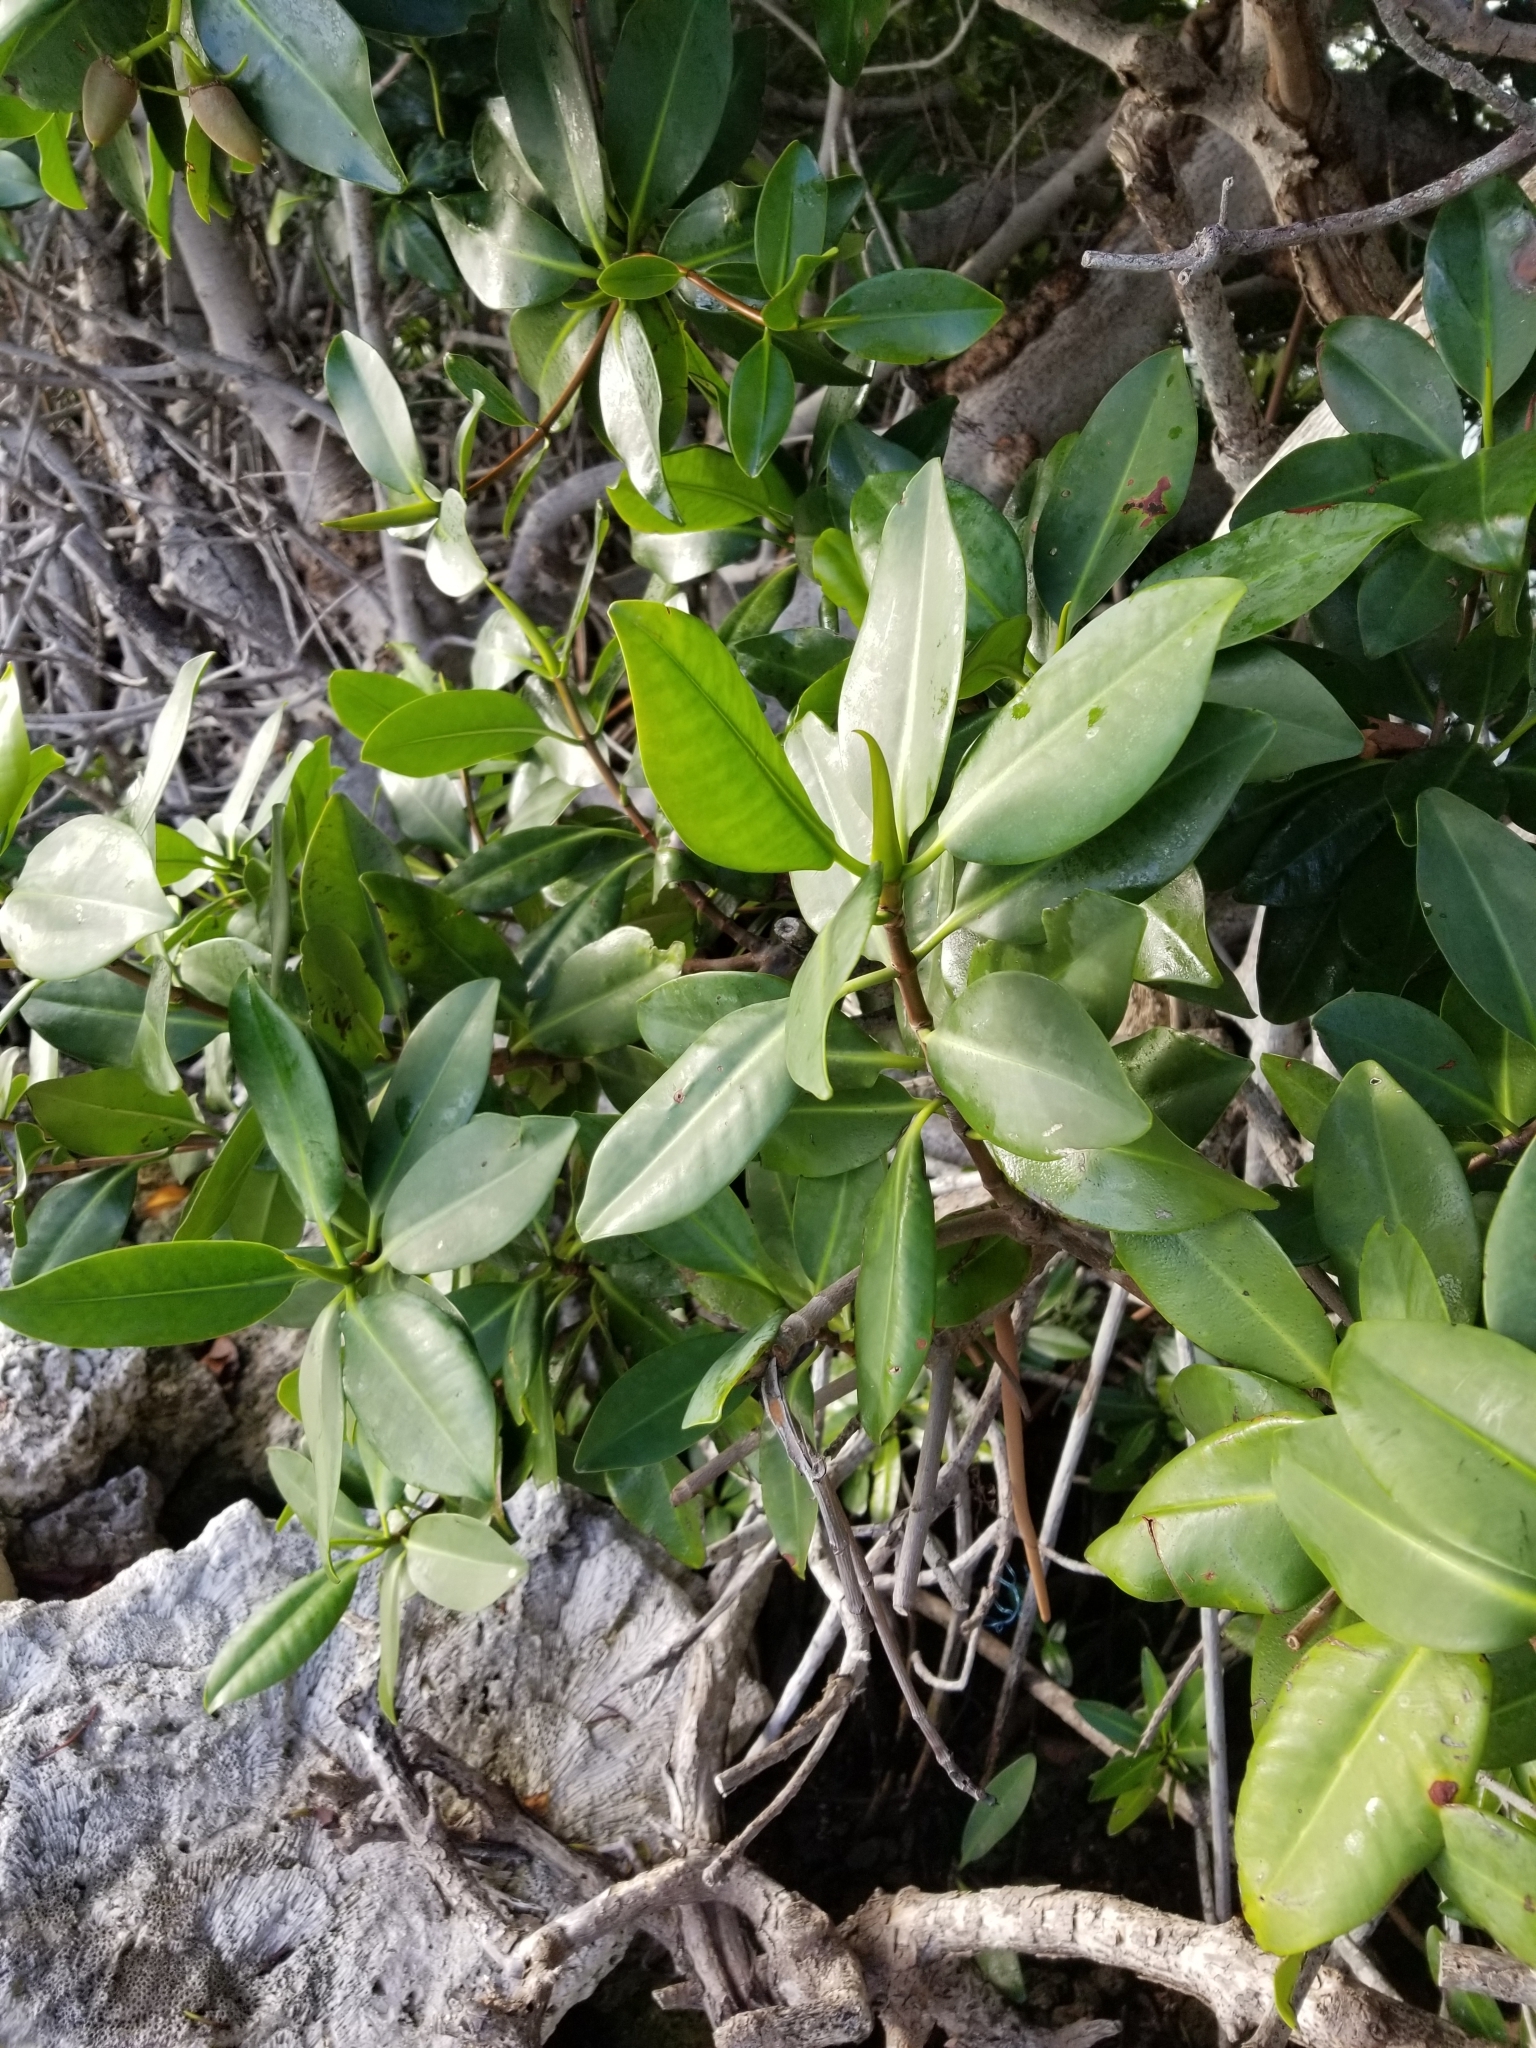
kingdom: Plantae
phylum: Tracheophyta
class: Magnoliopsida
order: Malpighiales
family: Rhizophoraceae
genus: Rhizophora
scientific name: Rhizophora mangle
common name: Red mangrove
